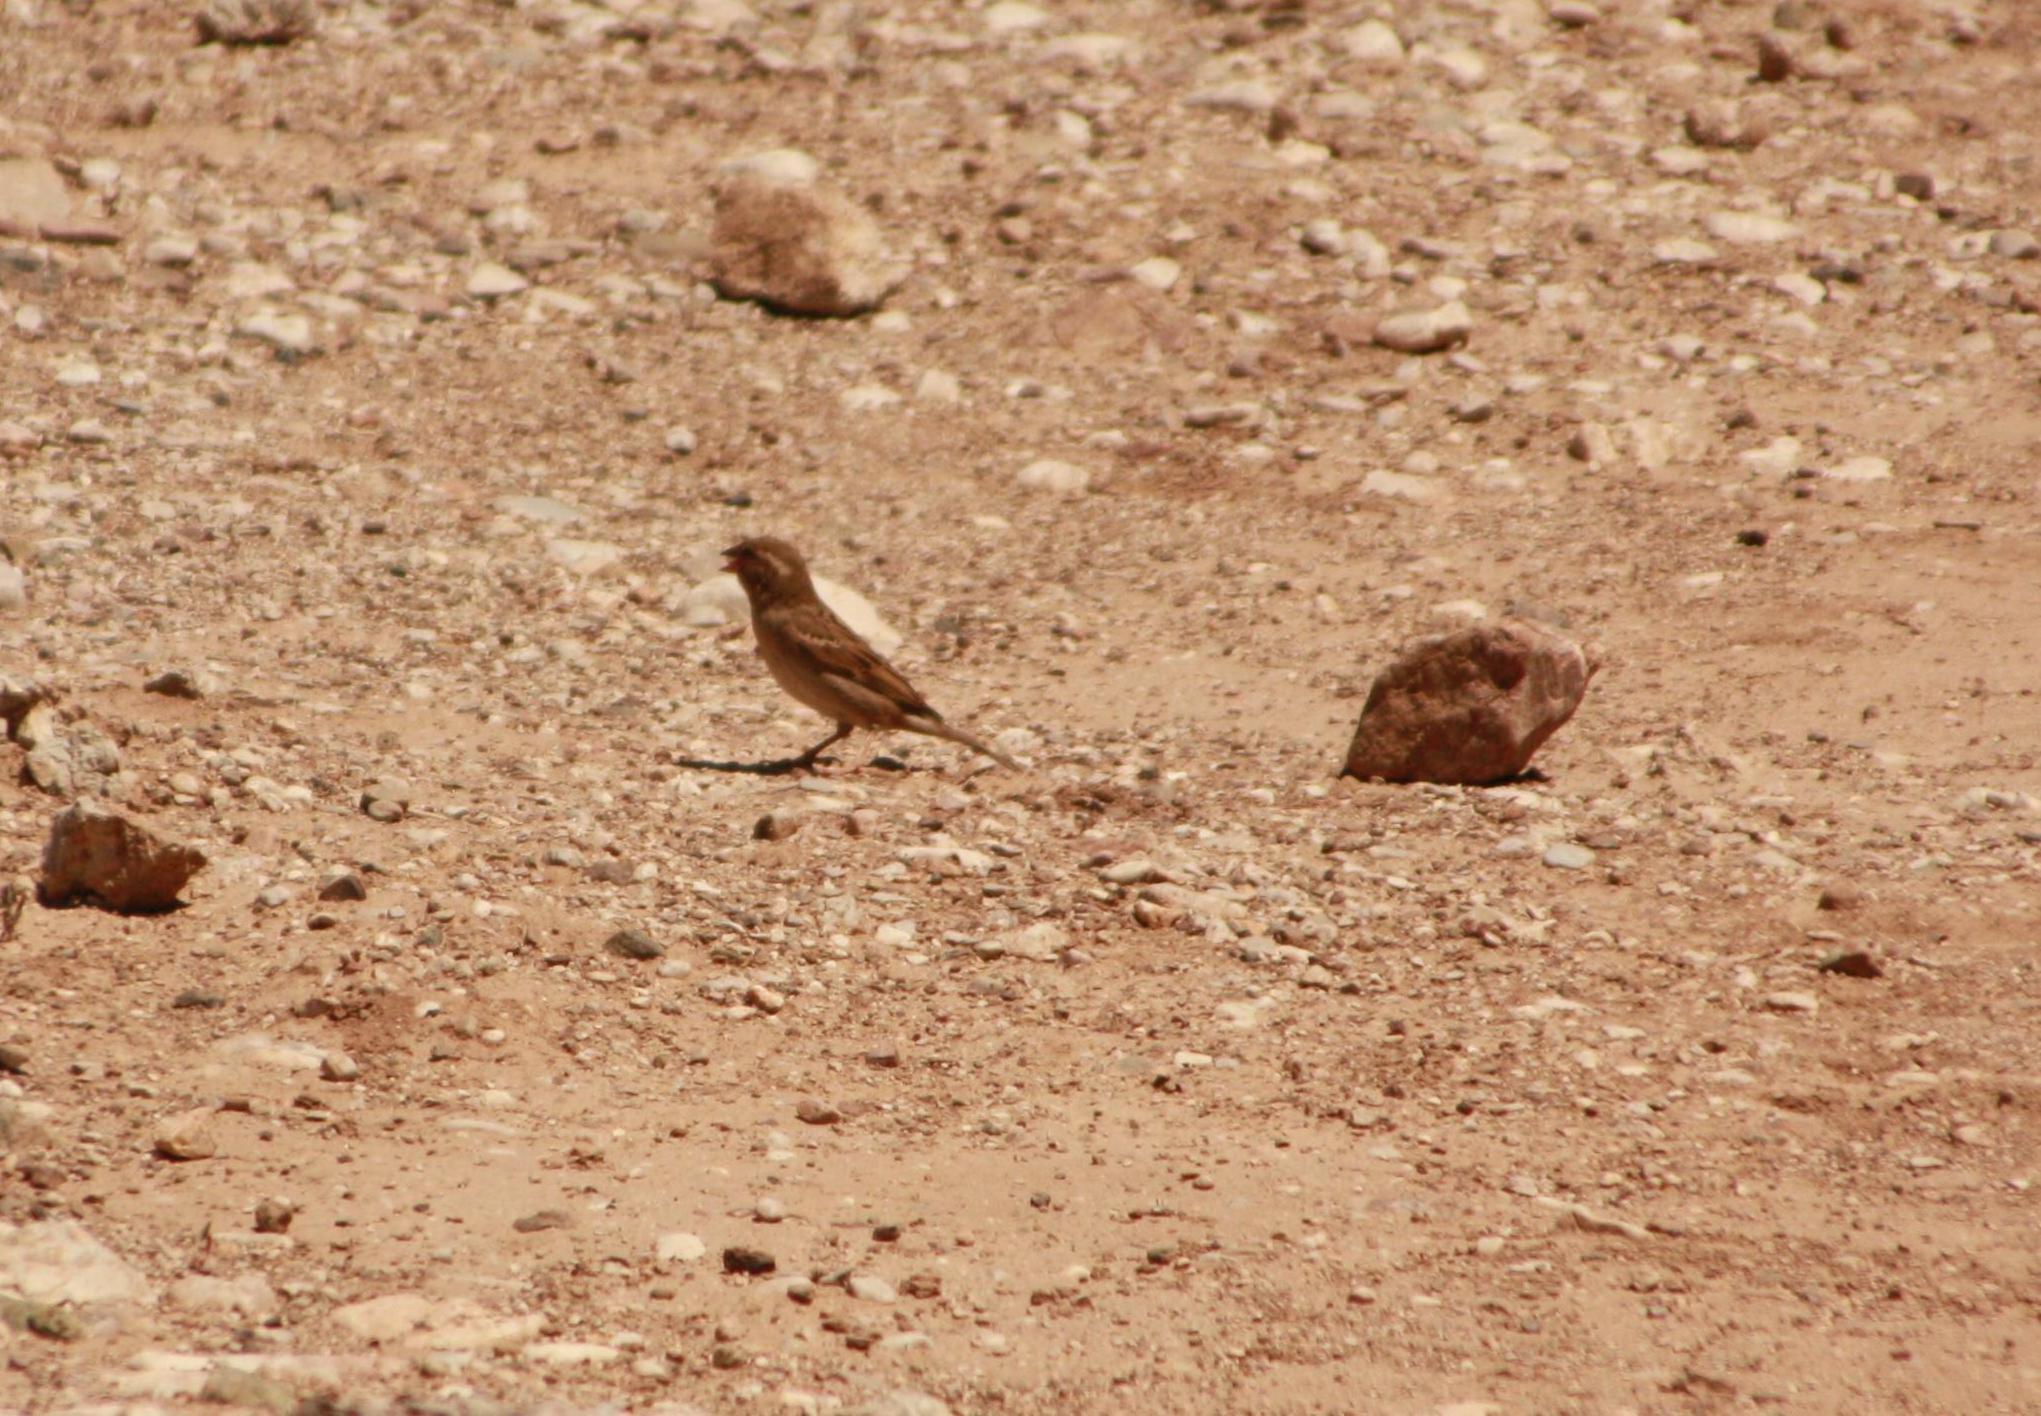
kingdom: Animalia
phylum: Chordata
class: Aves
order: Passeriformes
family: Passeridae
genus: Passer
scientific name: Passer domesticus
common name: House sparrow
